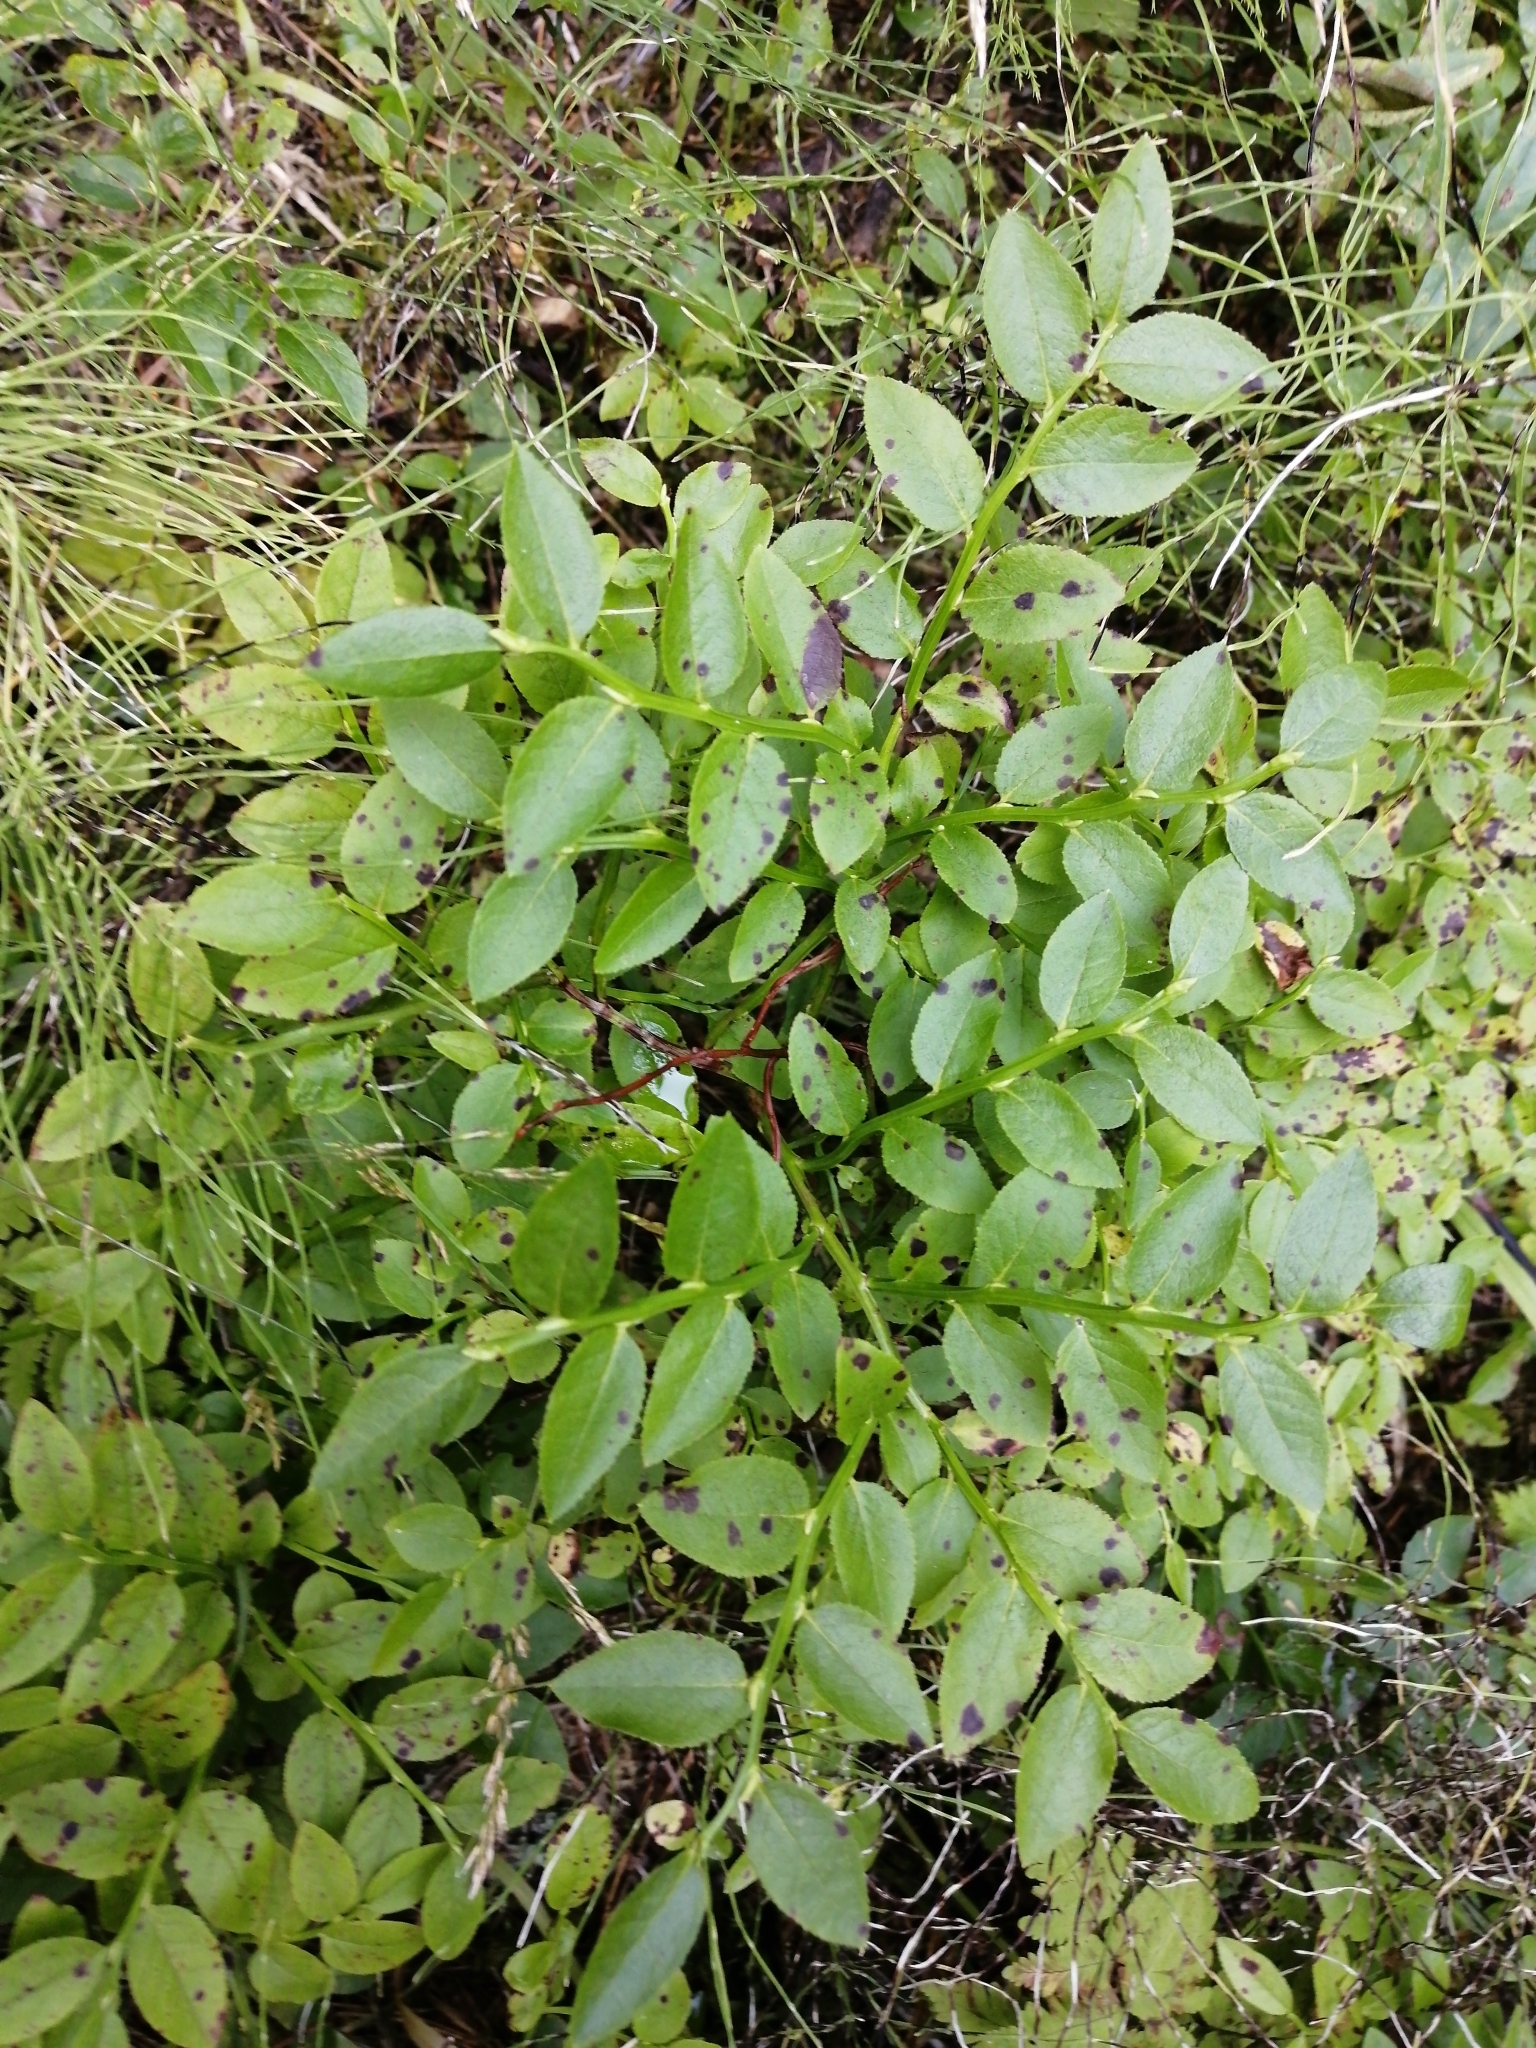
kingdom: Plantae
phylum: Tracheophyta
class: Magnoliopsida
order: Ericales
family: Ericaceae
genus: Vaccinium
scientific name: Vaccinium myrtillus
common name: Bilberry
